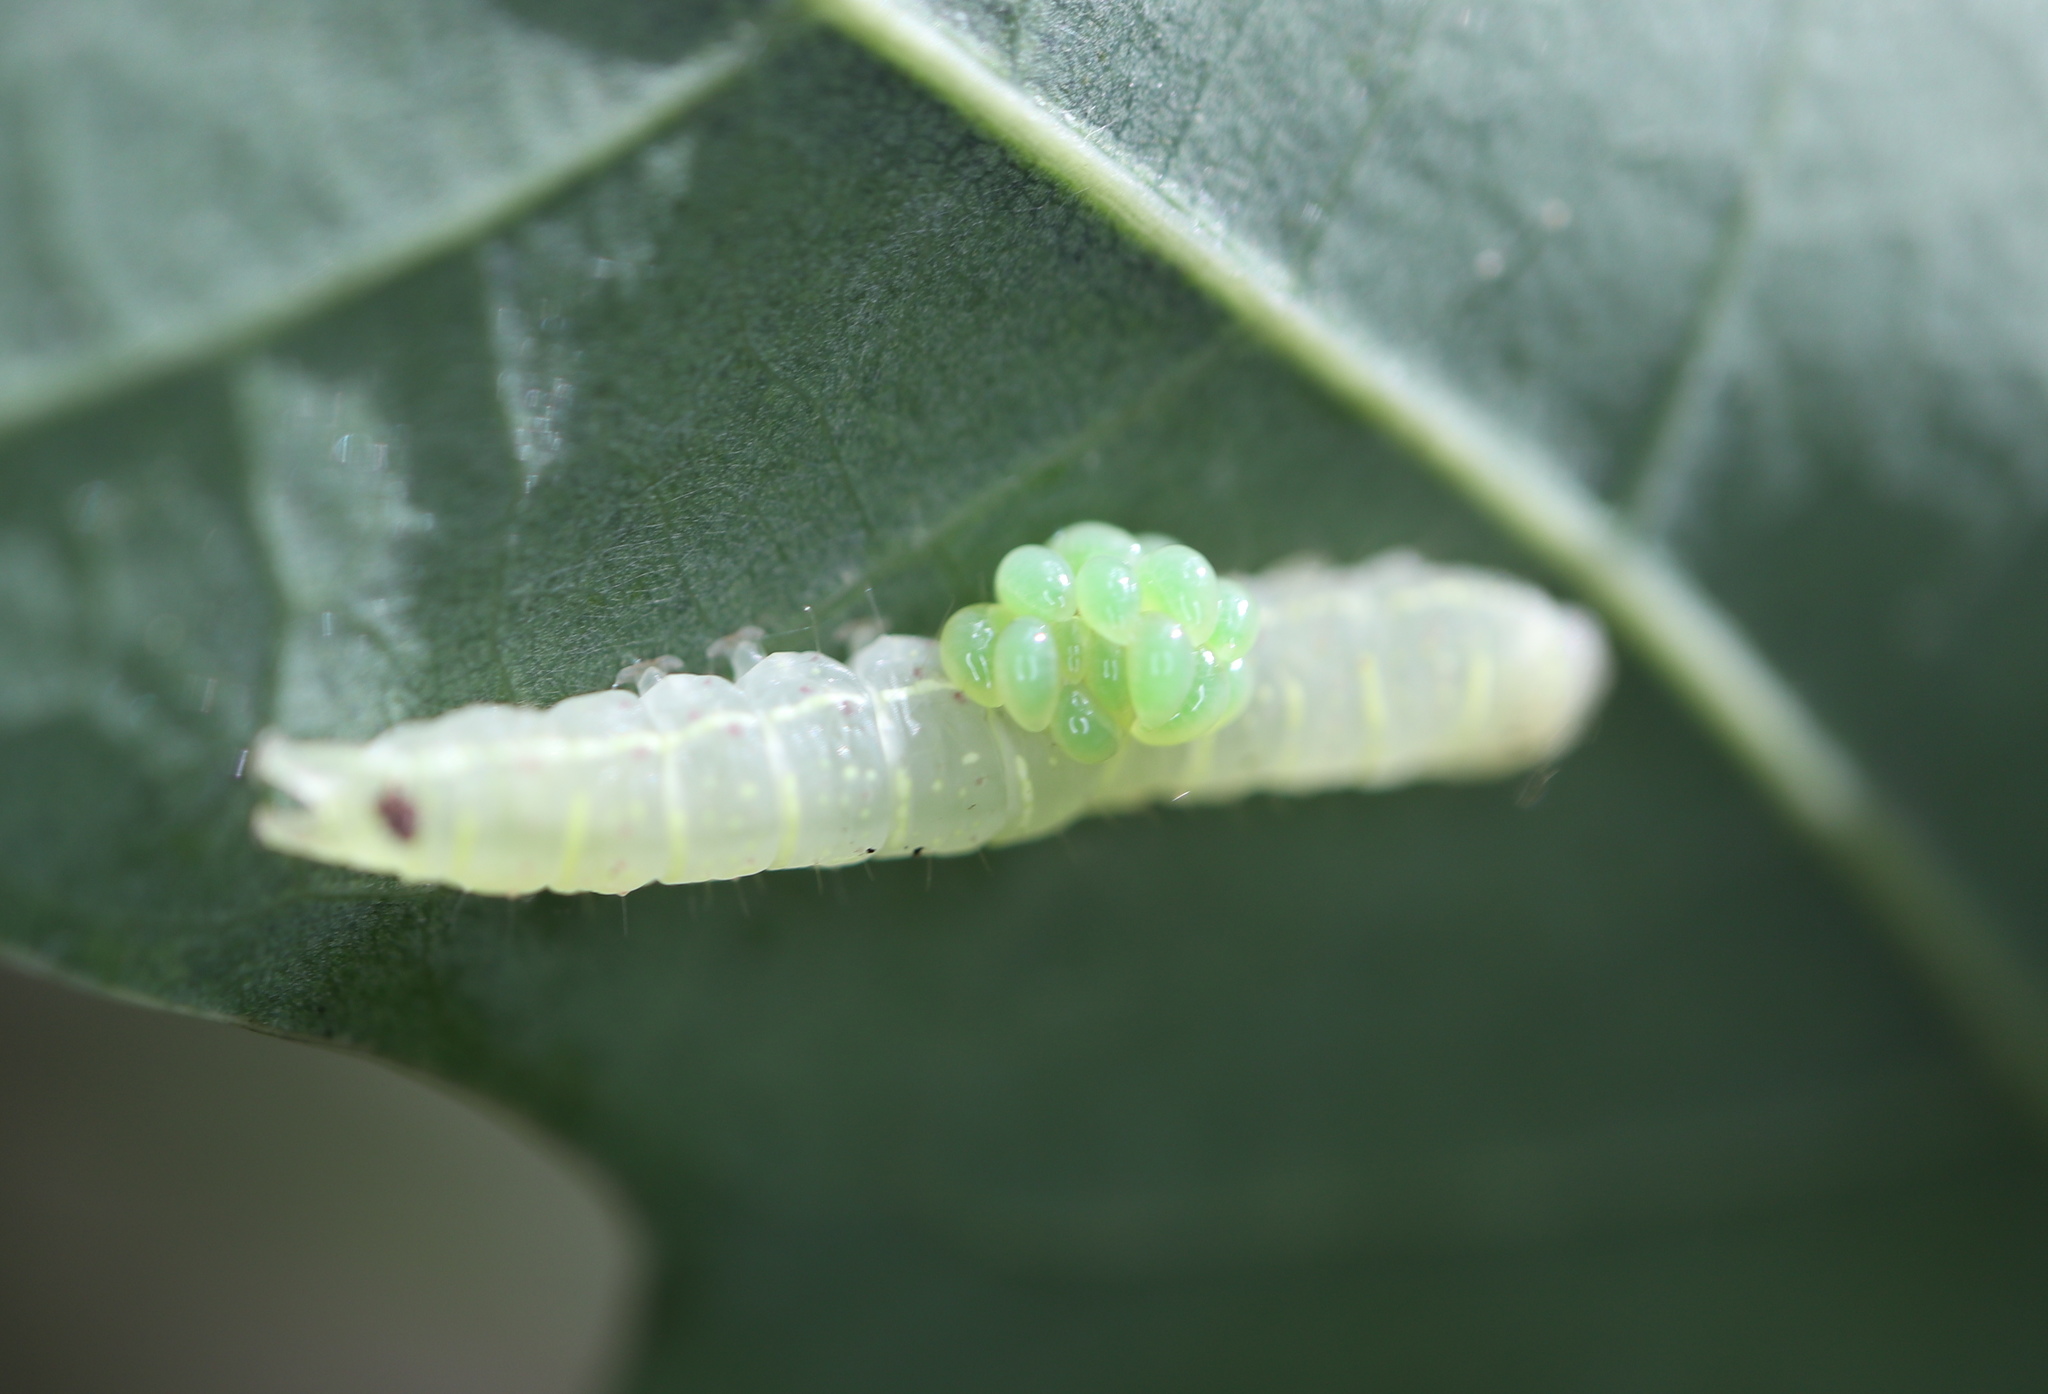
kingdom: Animalia
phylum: Arthropoda
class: Insecta
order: Hymenoptera
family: Eulophidae
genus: Euplectrus
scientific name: Euplectrus
